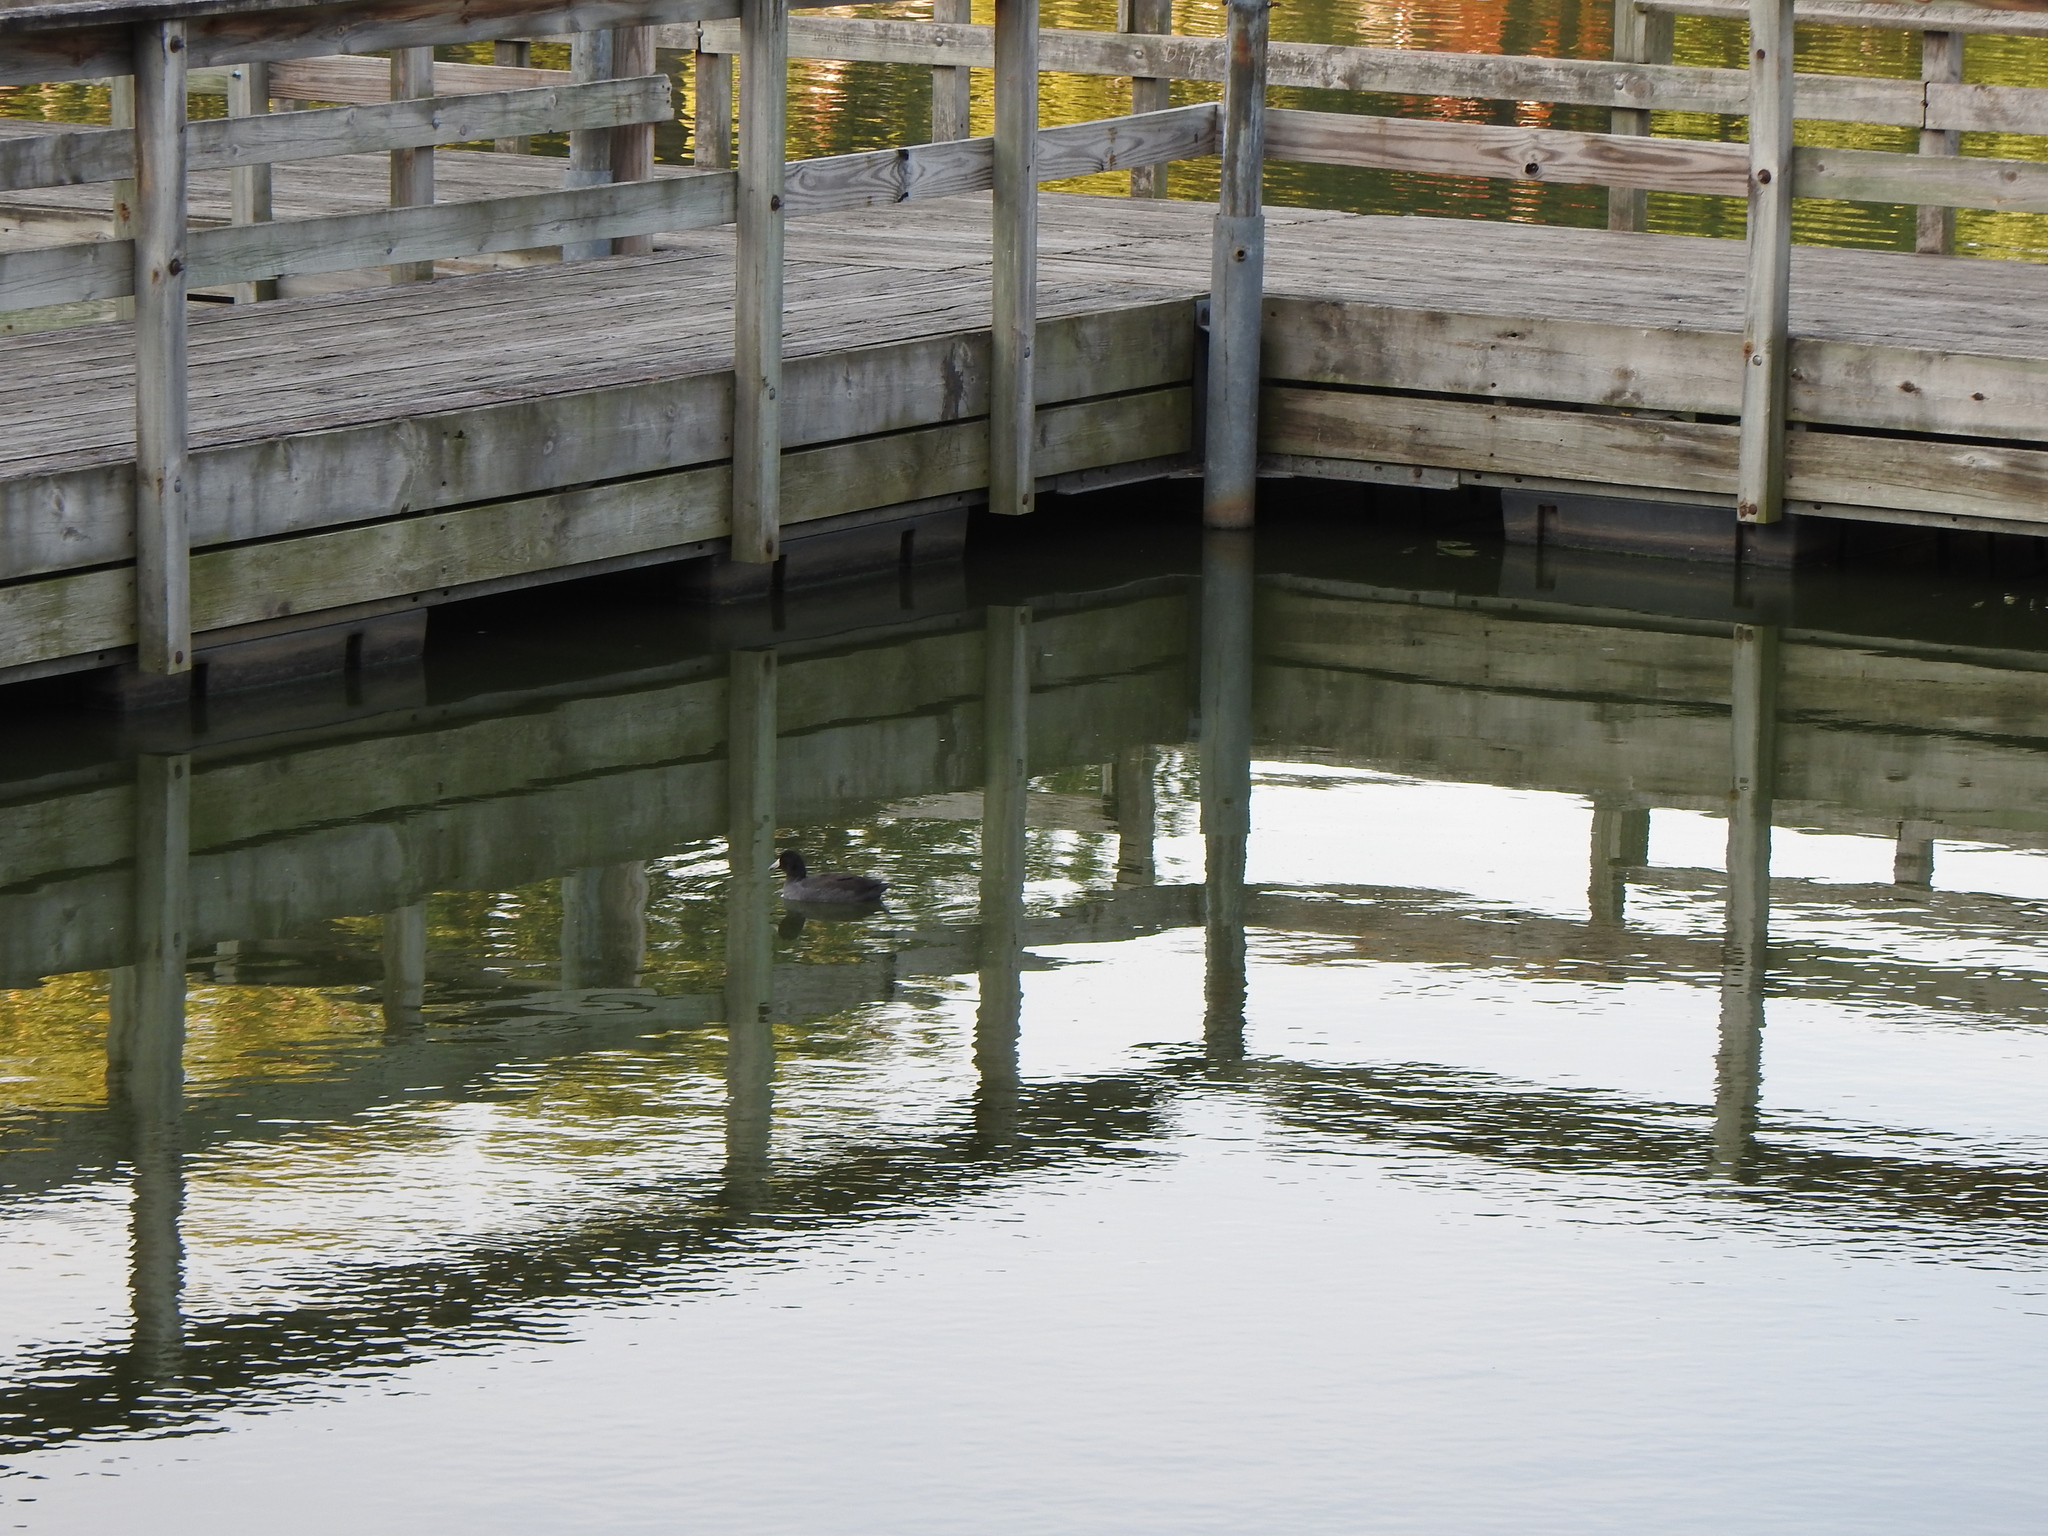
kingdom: Animalia
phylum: Chordata
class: Aves
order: Gruiformes
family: Rallidae
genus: Fulica
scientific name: Fulica americana
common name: American coot
